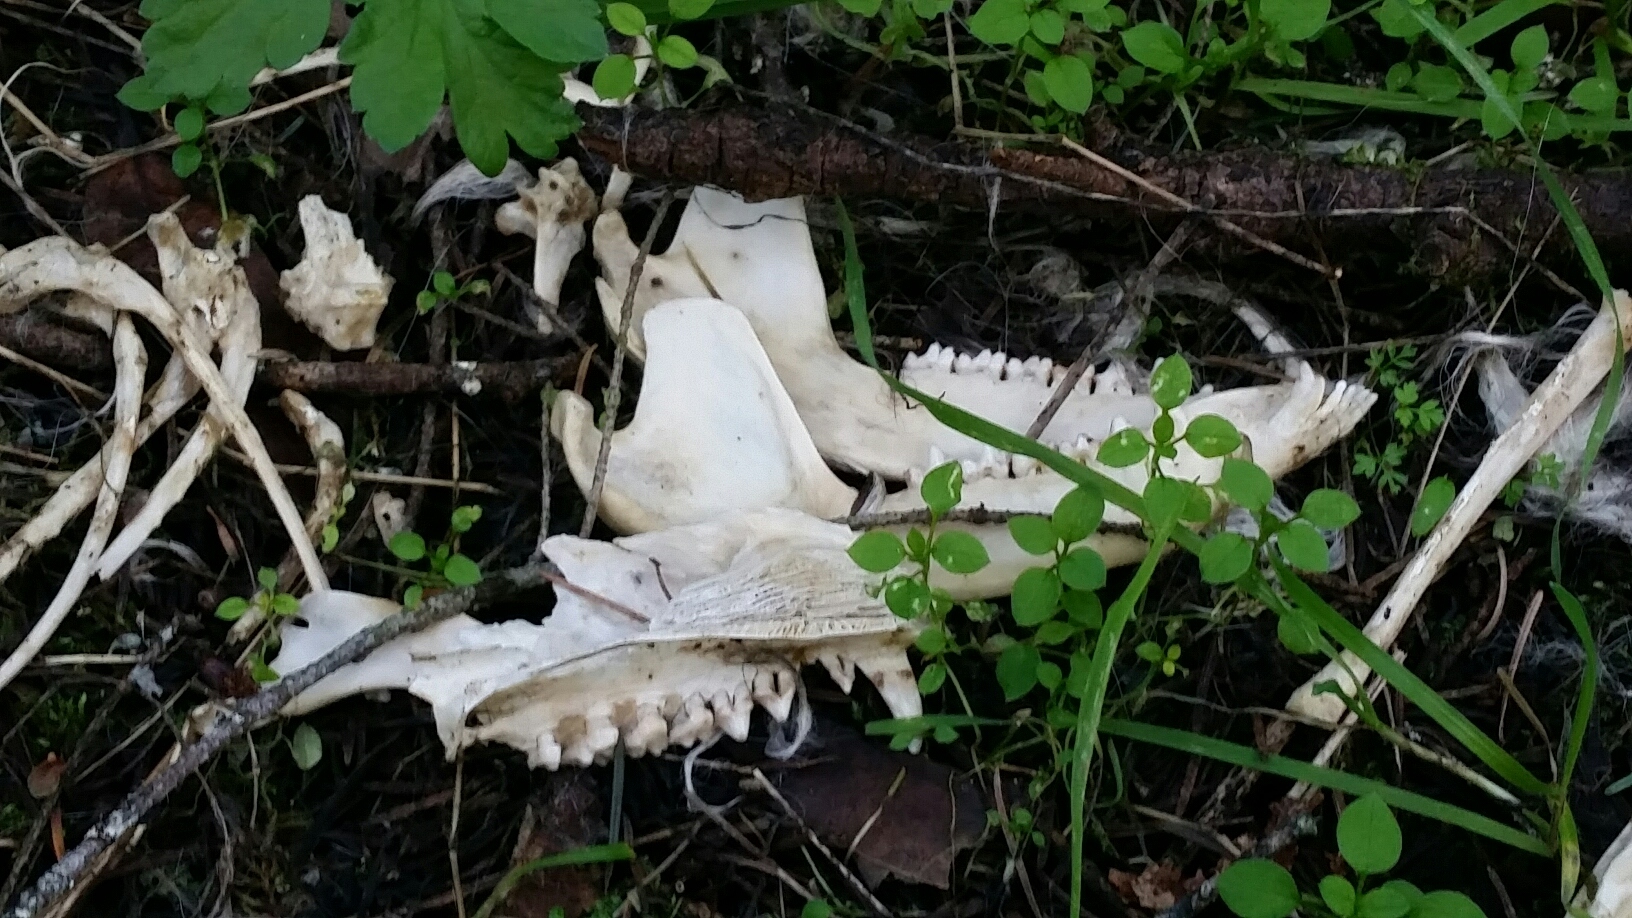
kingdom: Animalia
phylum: Chordata
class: Mammalia
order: Didelphimorphia
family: Didelphidae
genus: Didelphis
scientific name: Didelphis virginiana
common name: Virginia opossum
